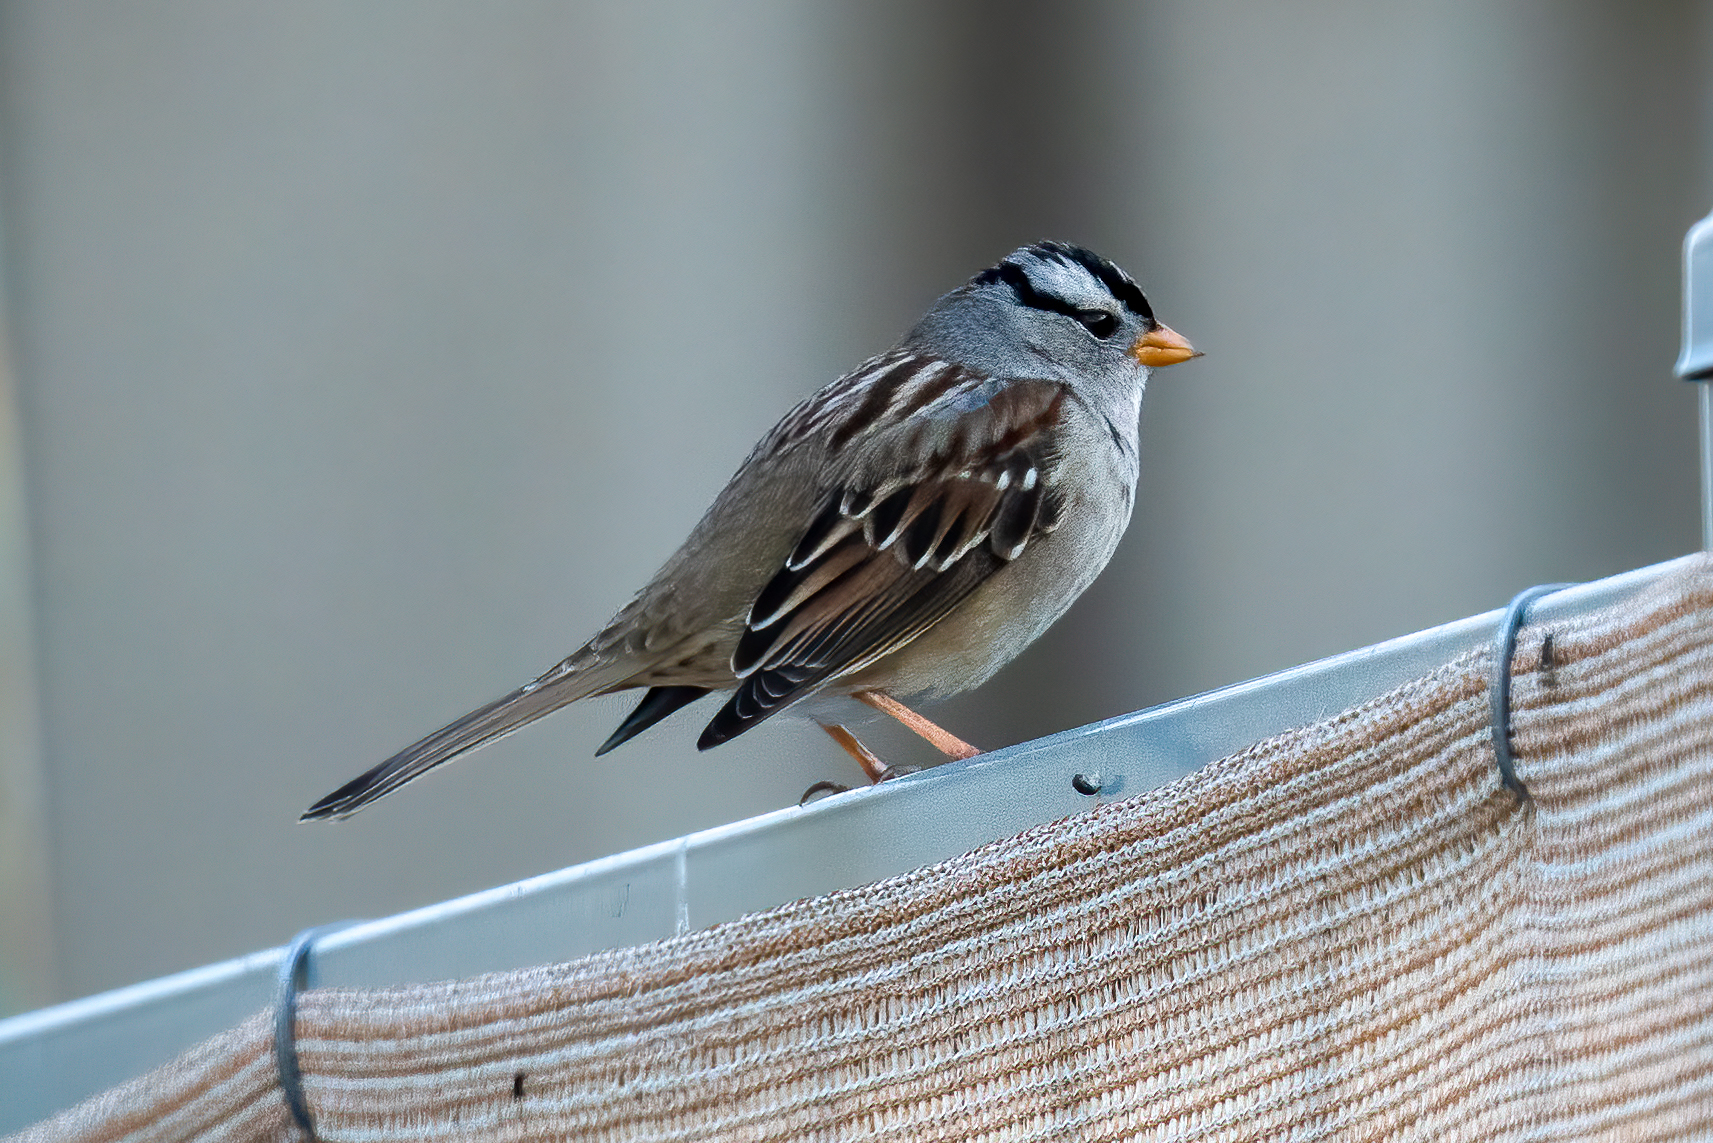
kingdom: Animalia
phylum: Chordata
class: Aves
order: Passeriformes
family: Passerellidae
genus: Zonotrichia
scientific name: Zonotrichia leucophrys
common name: White-crowned sparrow
